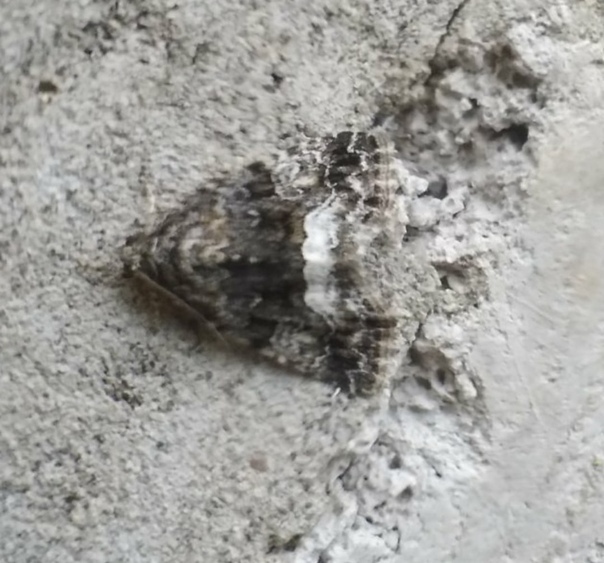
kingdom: Animalia
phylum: Arthropoda
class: Insecta
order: Lepidoptera
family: Noctuidae
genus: Deltote
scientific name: Deltote pygarga
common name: Marbled white spot
